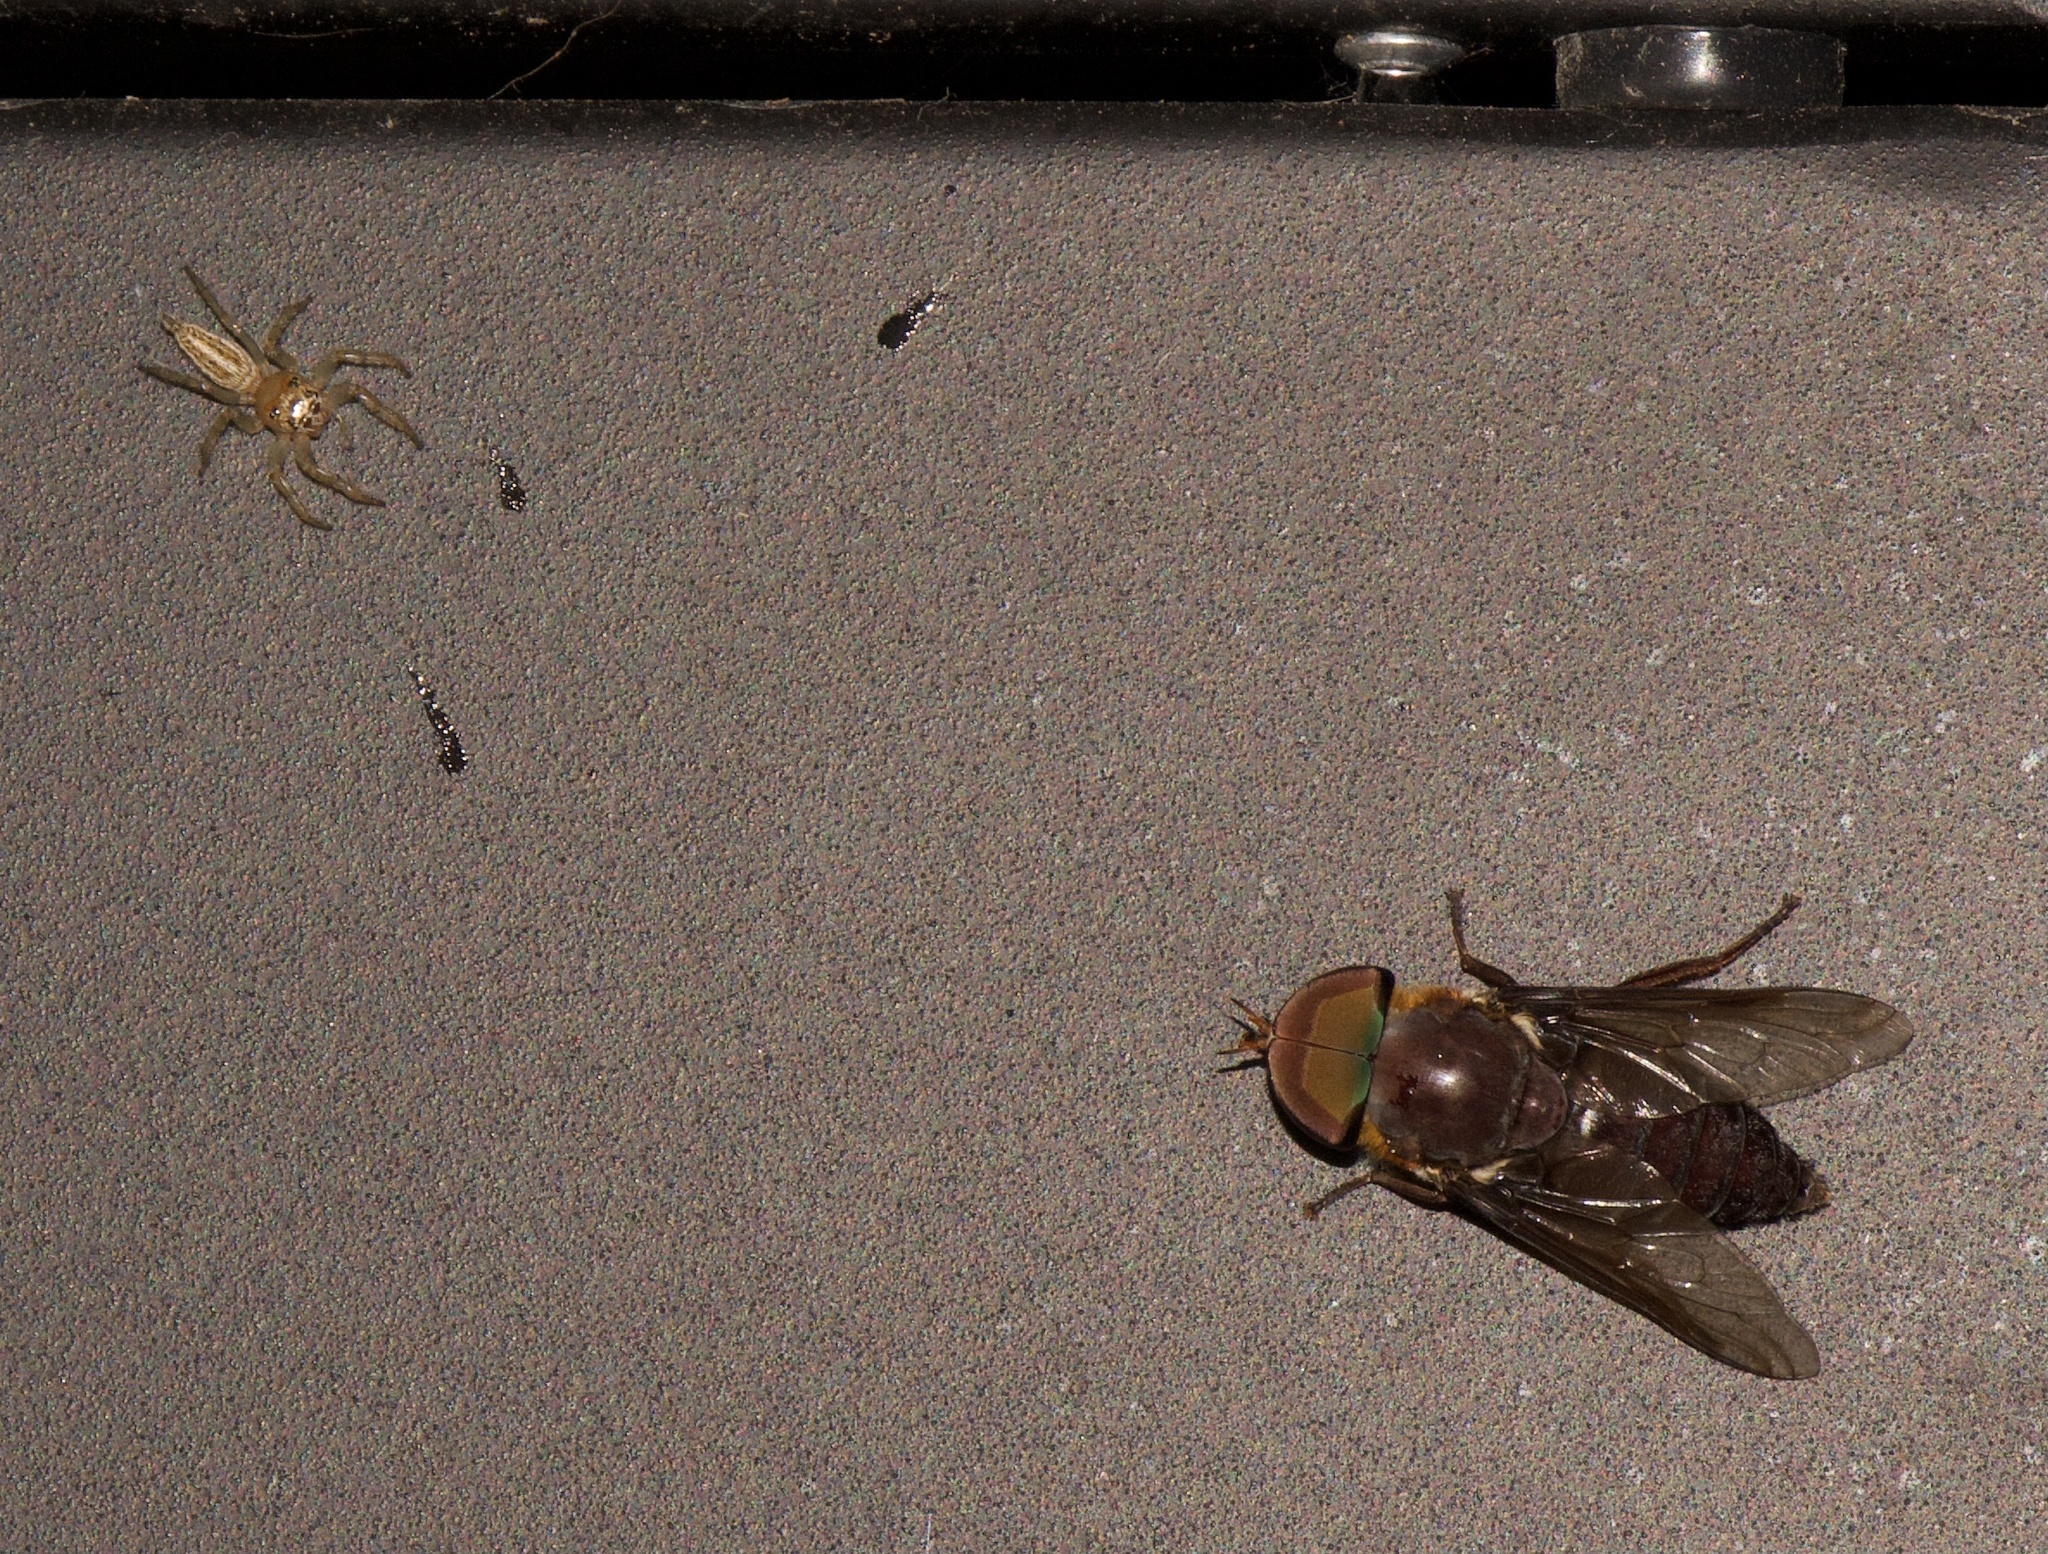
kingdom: Animalia
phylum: Arthropoda
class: Arachnida
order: Araneae
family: Salticidae
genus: Colonus
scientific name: Colonus sylvanus
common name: Jumping spiders
